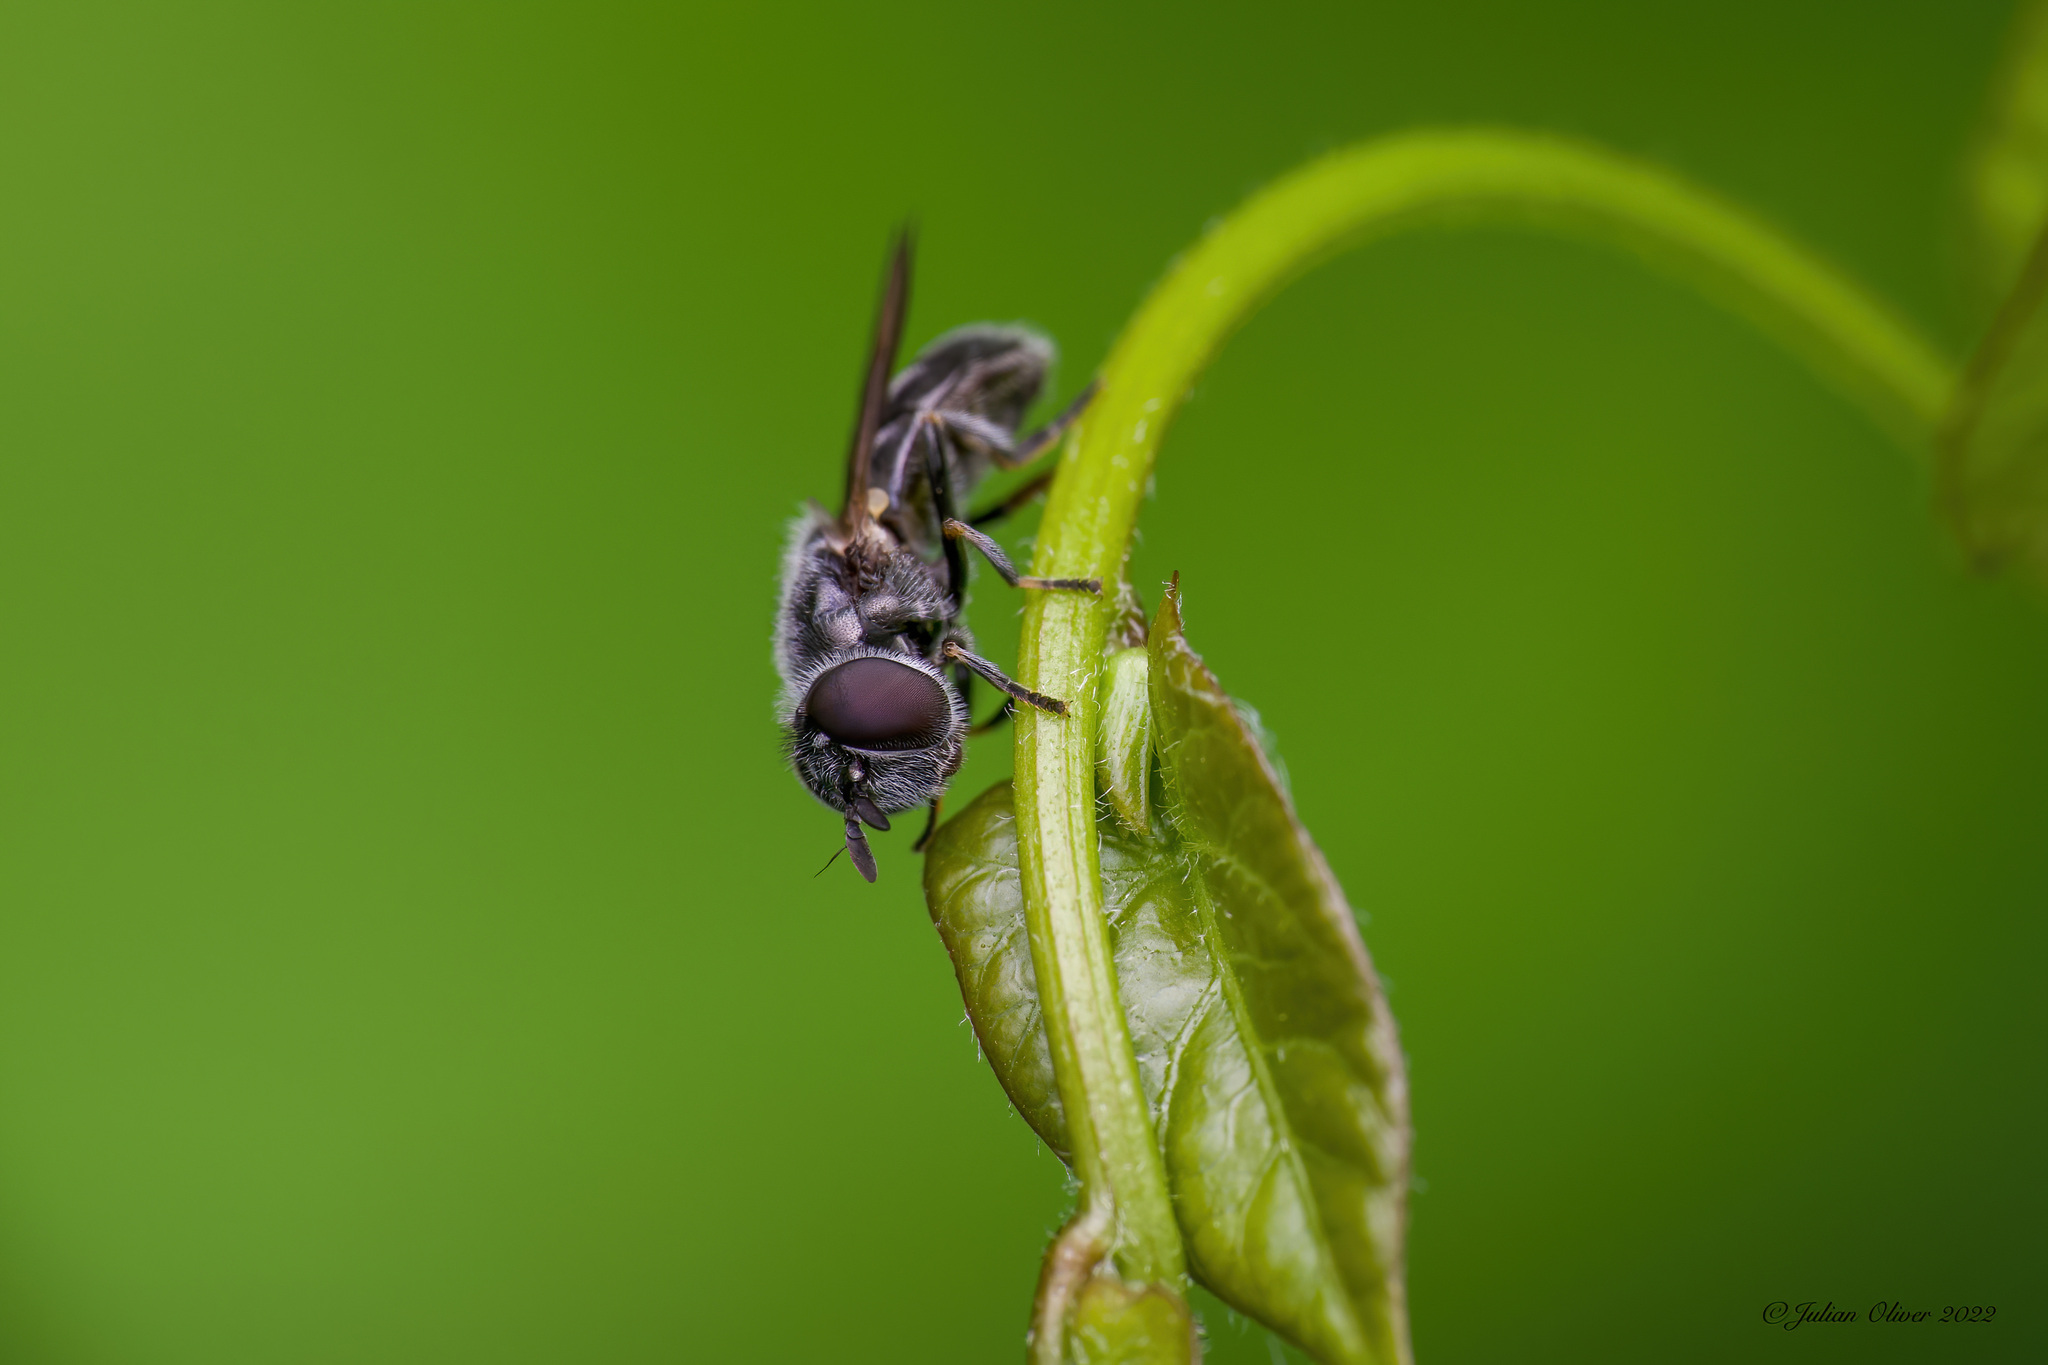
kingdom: Animalia
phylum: Arthropoda
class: Insecta
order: Diptera
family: Syrphidae
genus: Pipizella
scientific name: Pipizella
